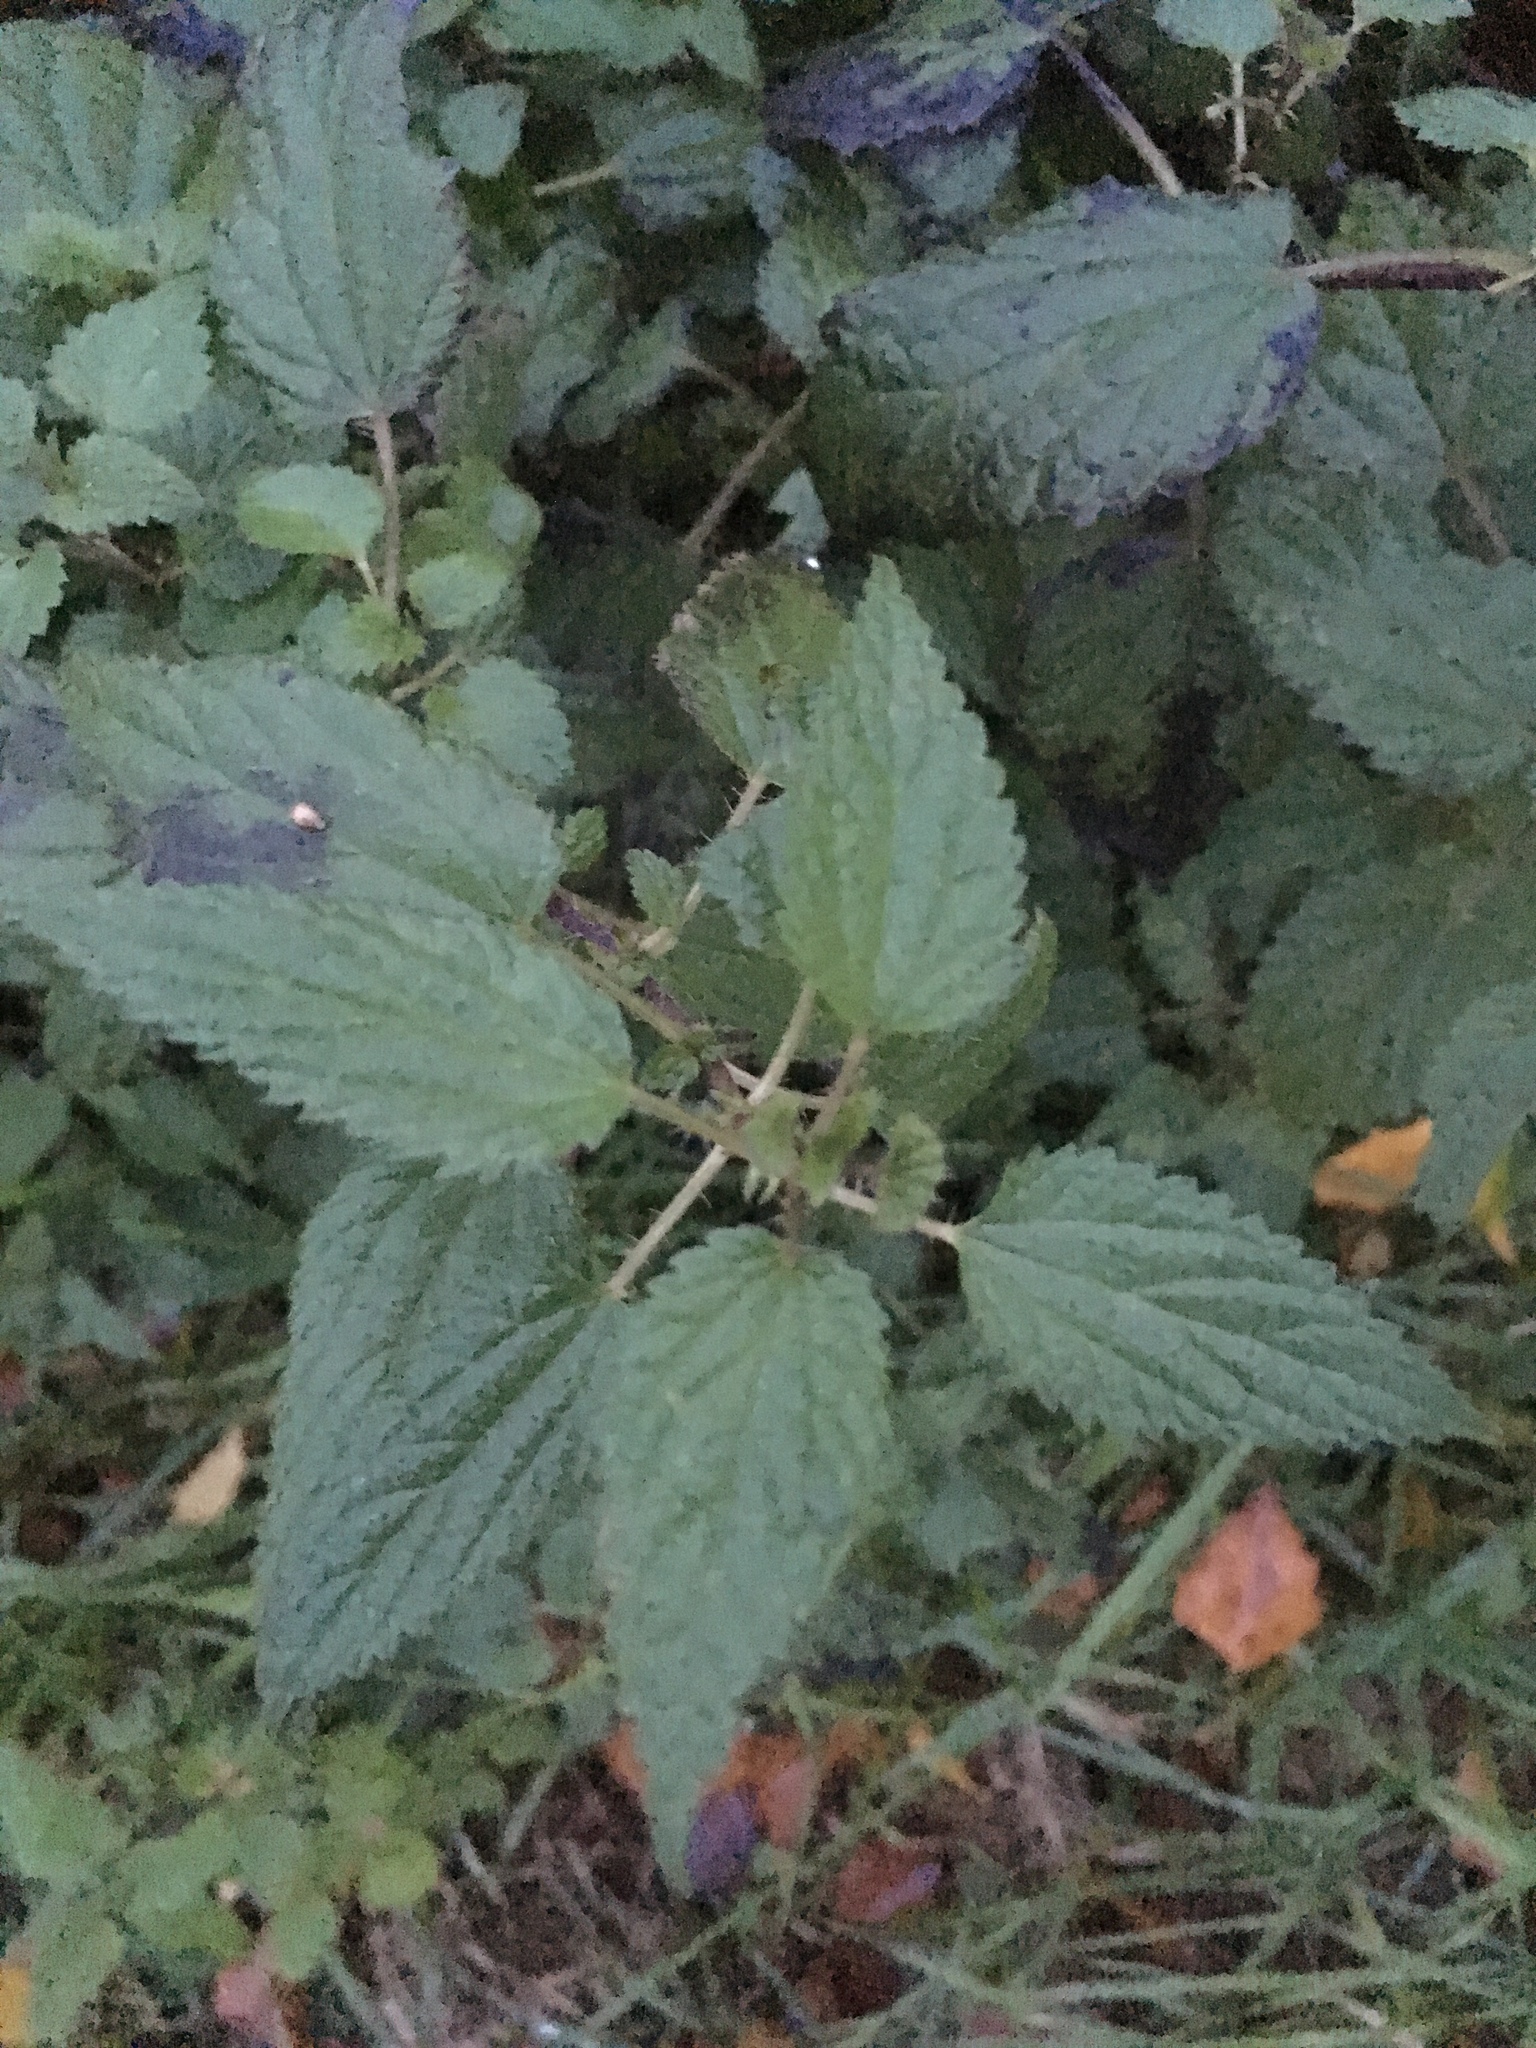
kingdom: Plantae
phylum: Tracheophyta
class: Magnoliopsida
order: Rosales
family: Urticaceae
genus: Urtica
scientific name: Urtica dioica
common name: Common nettle
